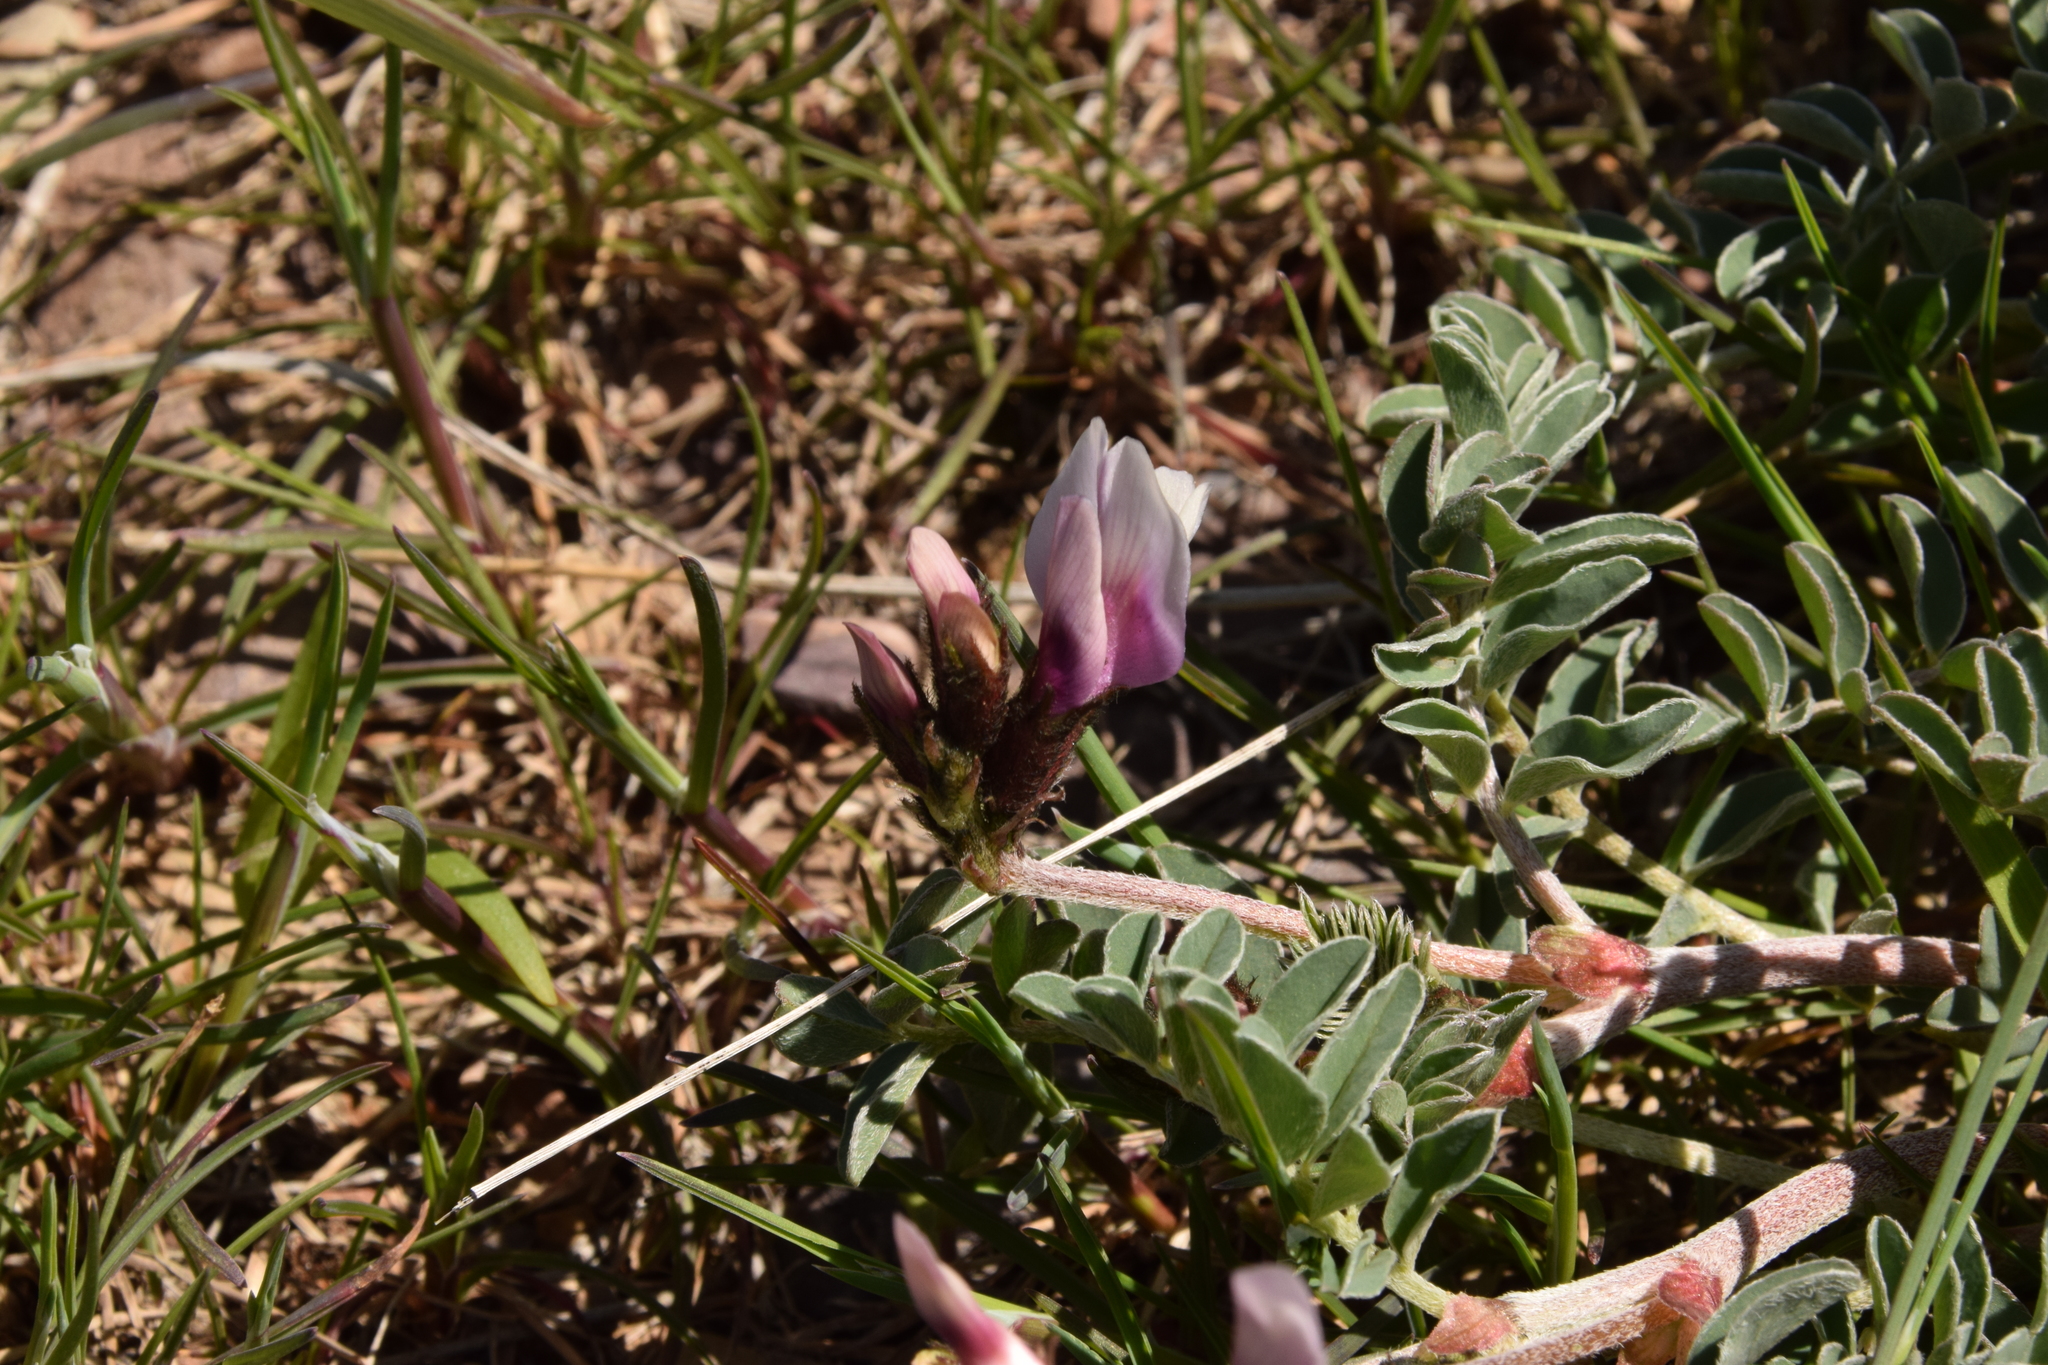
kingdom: Plantae
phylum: Tracheophyta
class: Magnoliopsida
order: Fabales
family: Fabaceae
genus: Astragalus
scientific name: Astragalus cibarius
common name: Browse milk-vetch
